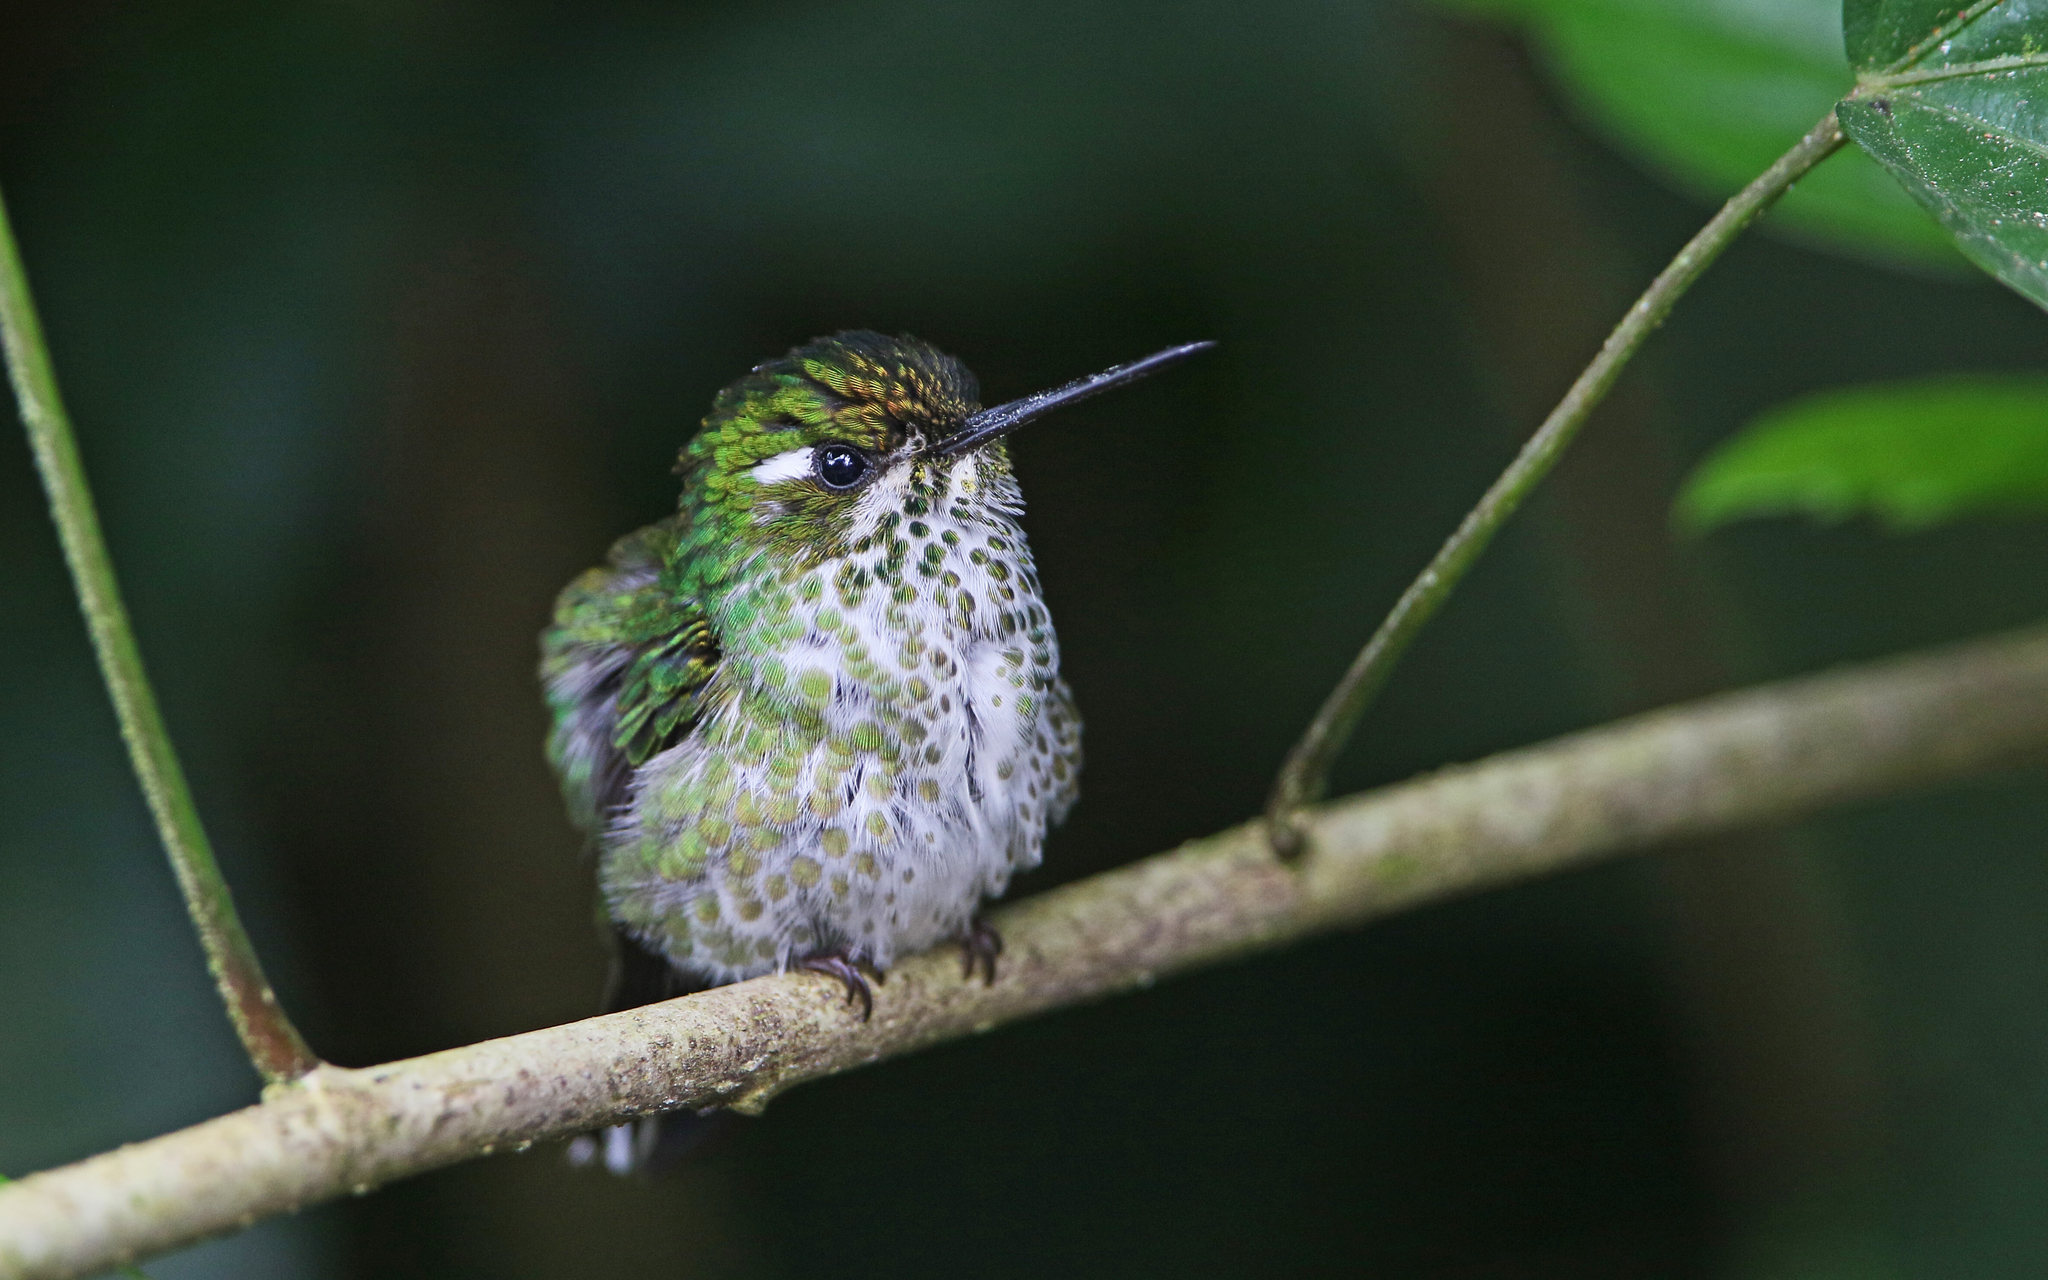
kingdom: Animalia
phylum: Chordata
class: Aves
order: Apodiformes
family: Trochilidae
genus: Urosticte
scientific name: Urosticte benjamini
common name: Purple-bibbed whitetip
